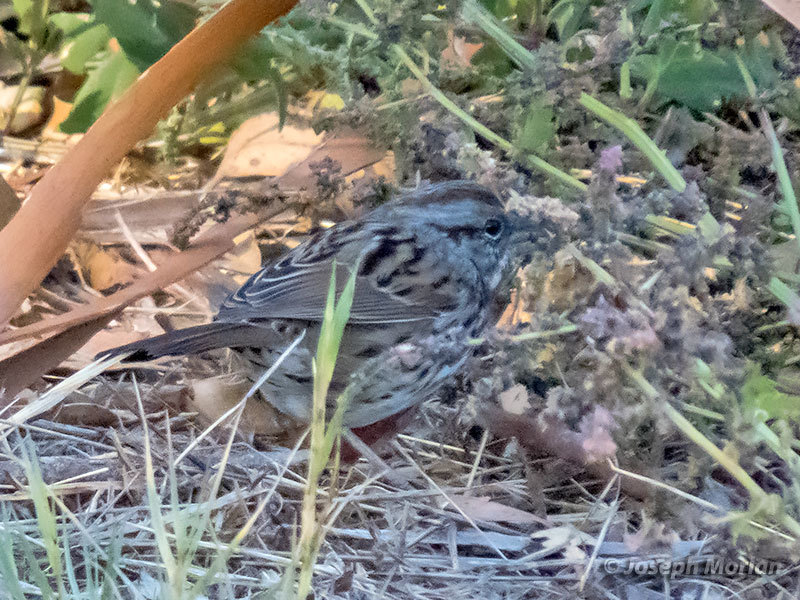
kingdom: Animalia
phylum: Chordata
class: Aves
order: Passeriformes
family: Passerellidae
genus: Melospiza
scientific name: Melospiza melodia
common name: Song sparrow
